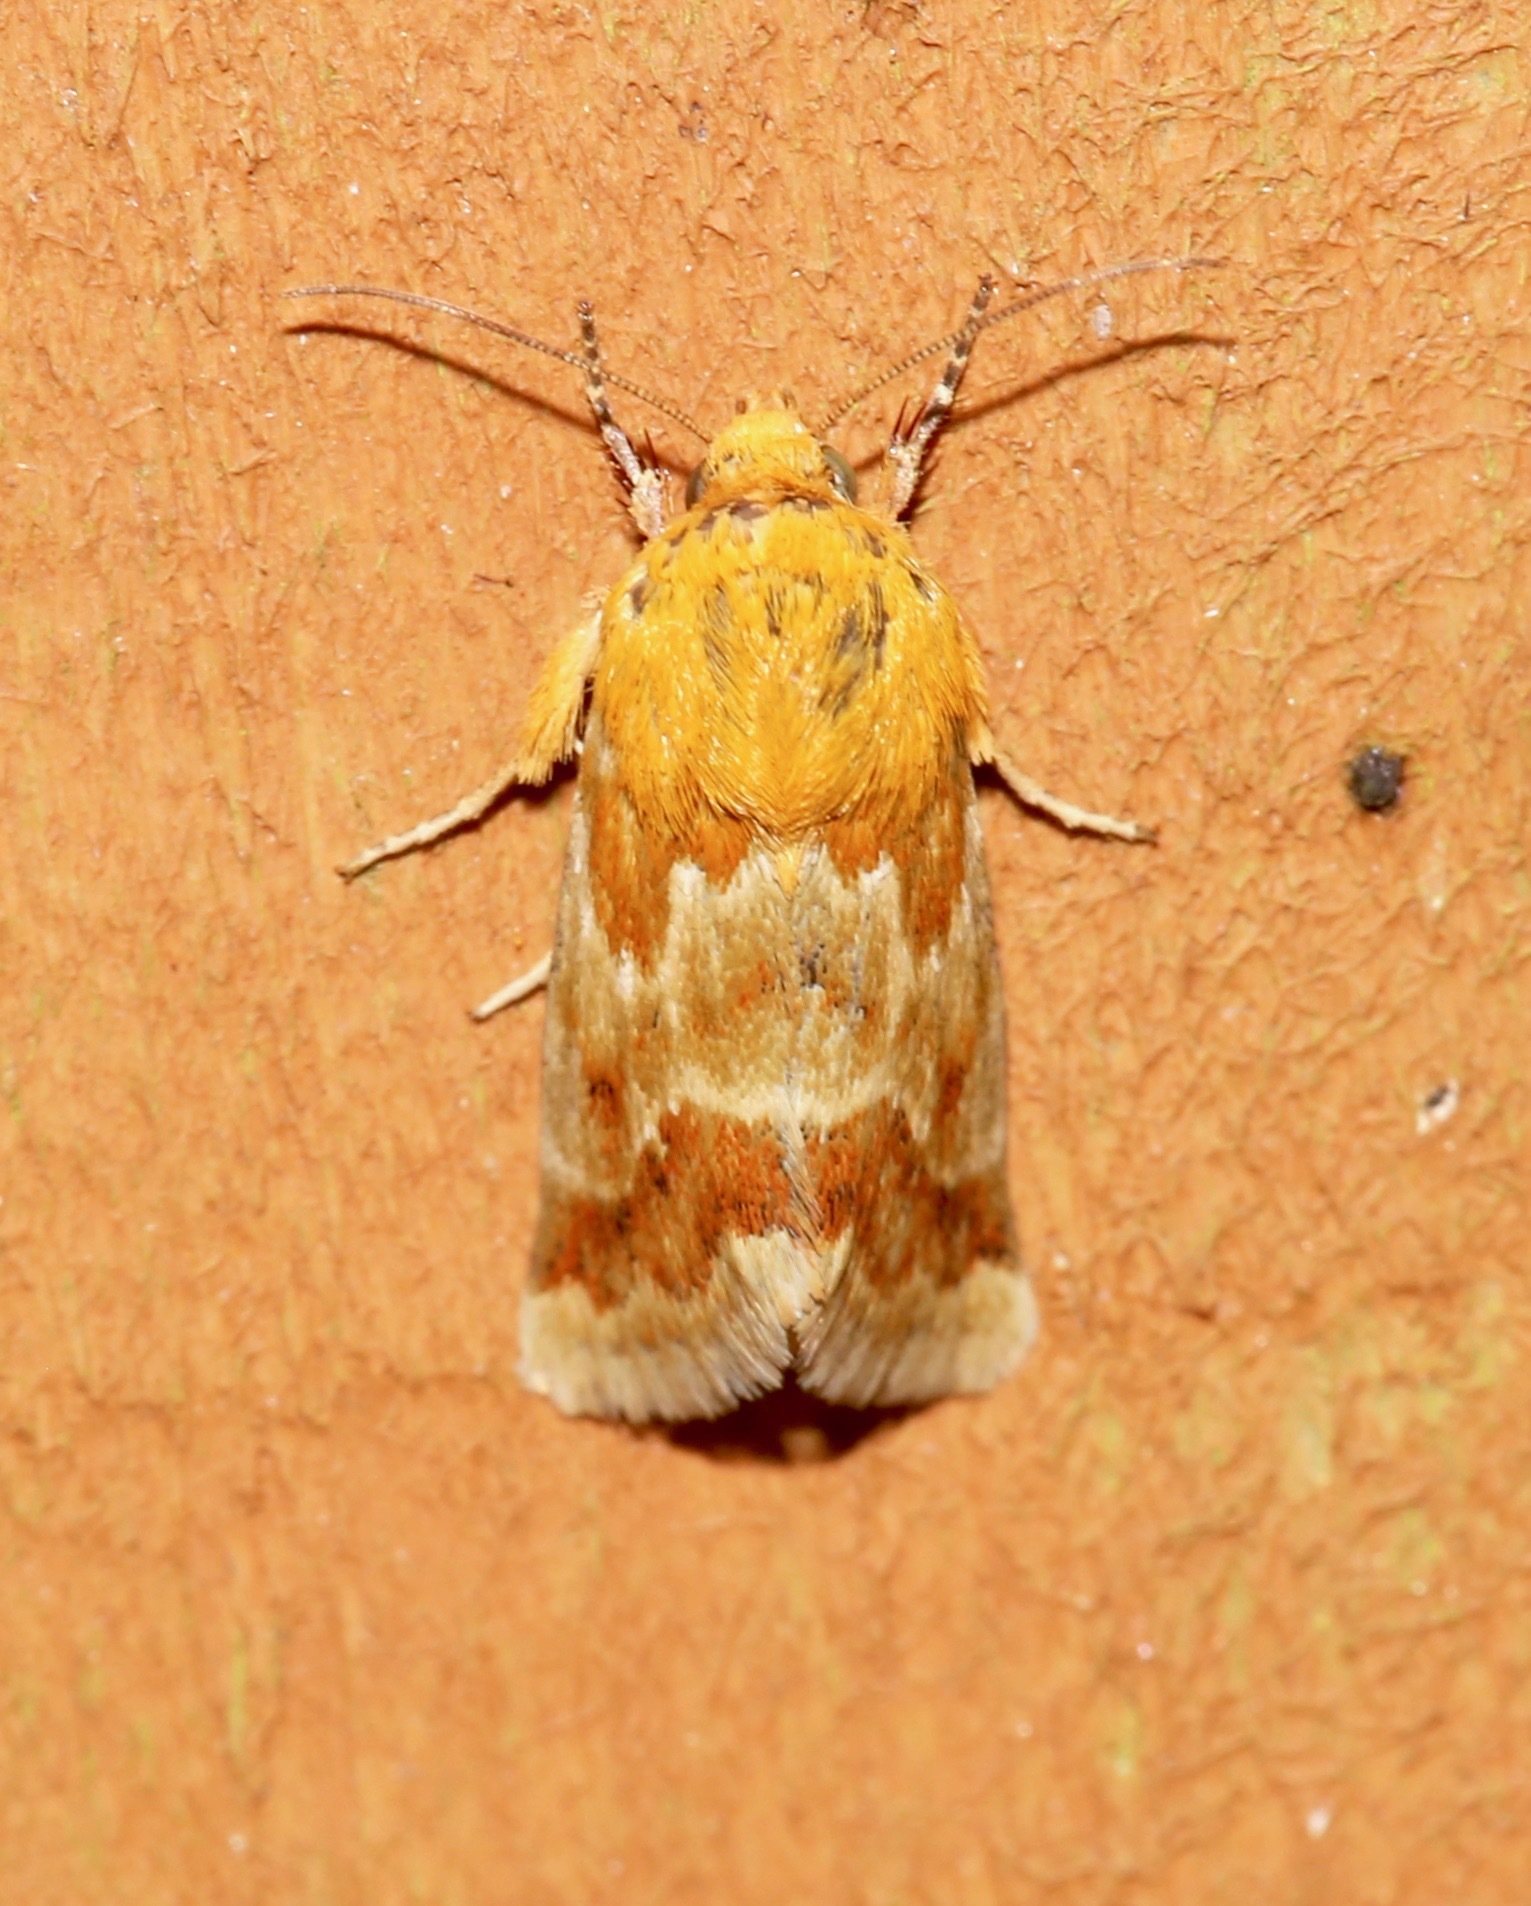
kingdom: Animalia
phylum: Arthropoda
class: Insecta
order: Lepidoptera
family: Noctuidae
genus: Schinia
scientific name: Schinia siren
